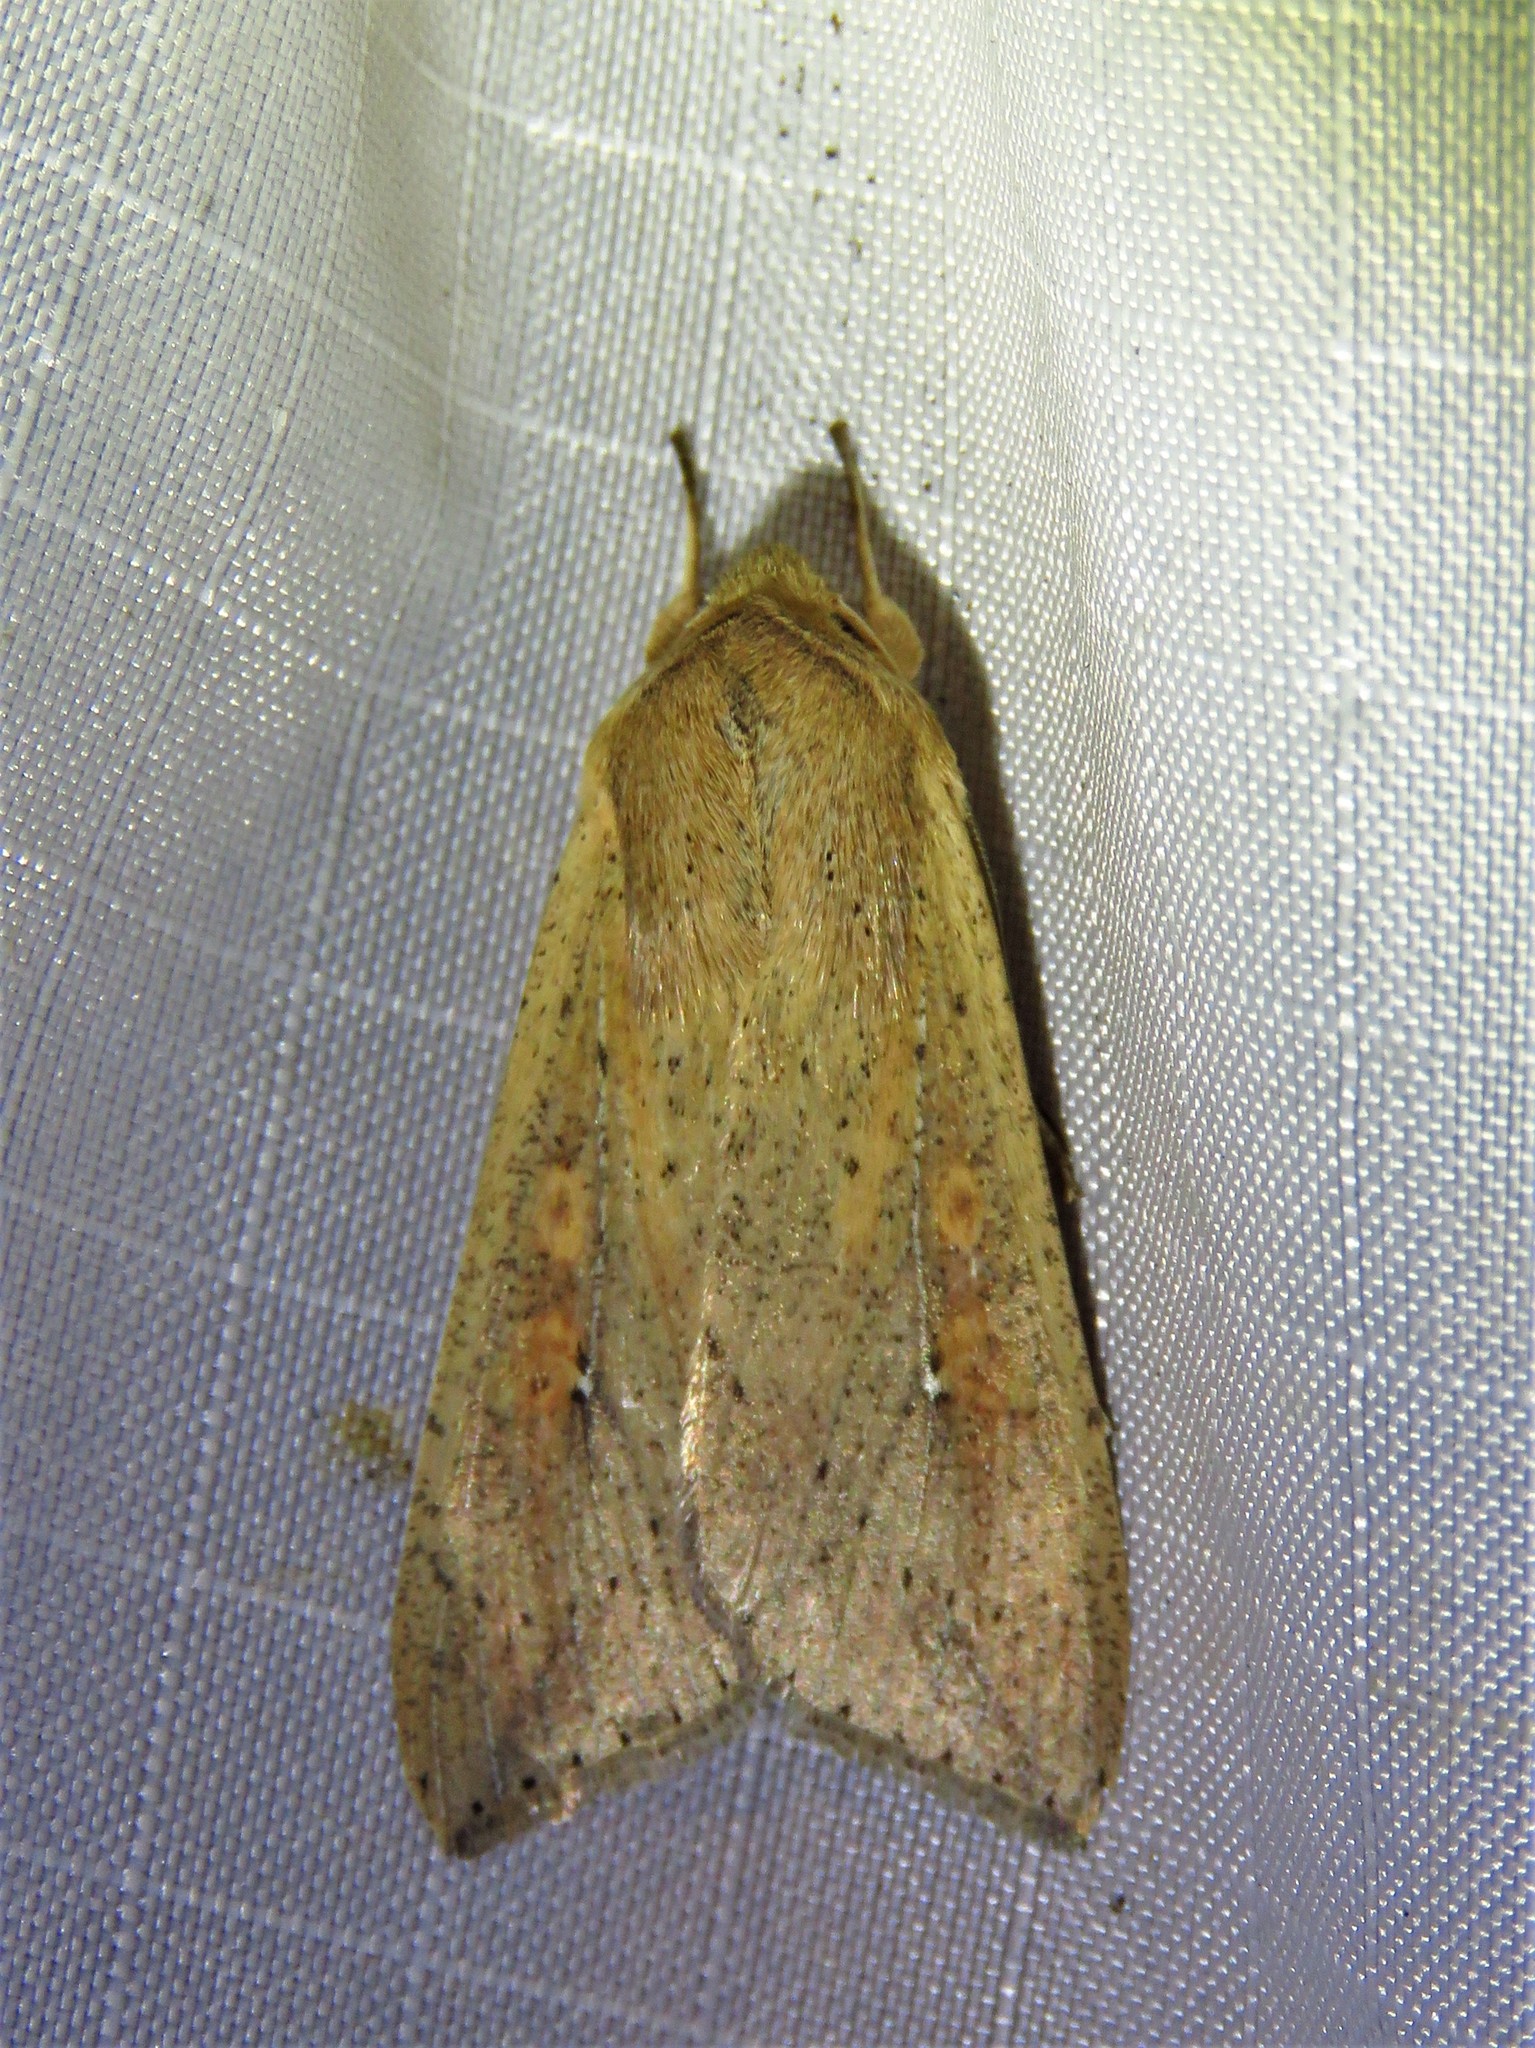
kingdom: Animalia
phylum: Arthropoda
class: Insecta
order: Lepidoptera
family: Noctuidae
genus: Mythimna
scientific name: Mythimna unipuncta
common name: White-speck
